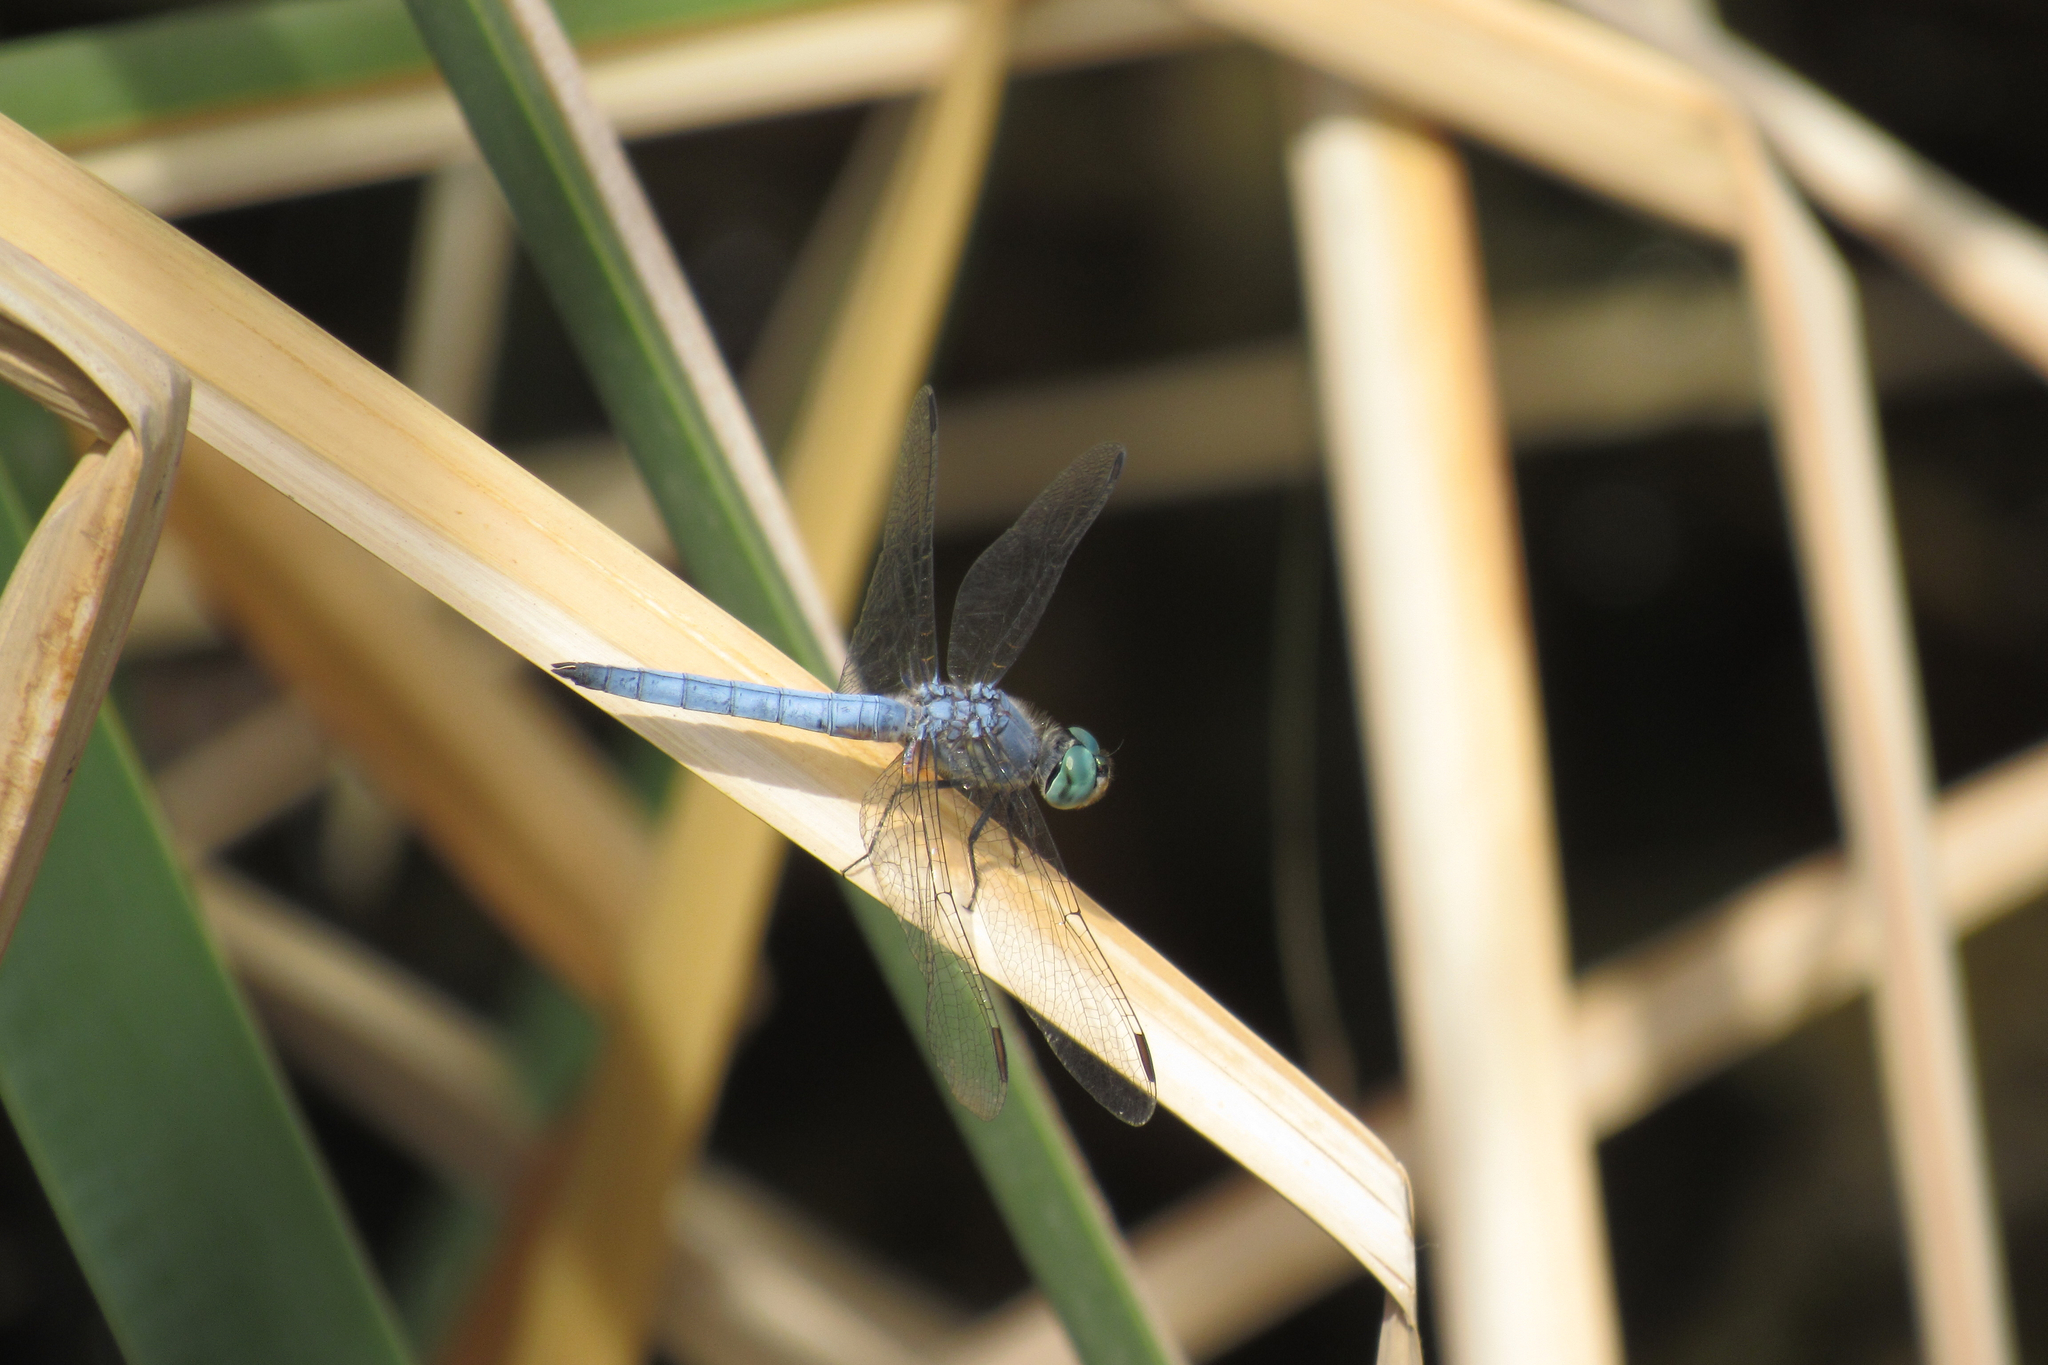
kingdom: Animalia
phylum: Arthropoda
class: Insecta
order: Odonata
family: Libellulidae
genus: Pachydiplax
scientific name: Pachydiplax longipennis
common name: Blue dasher
